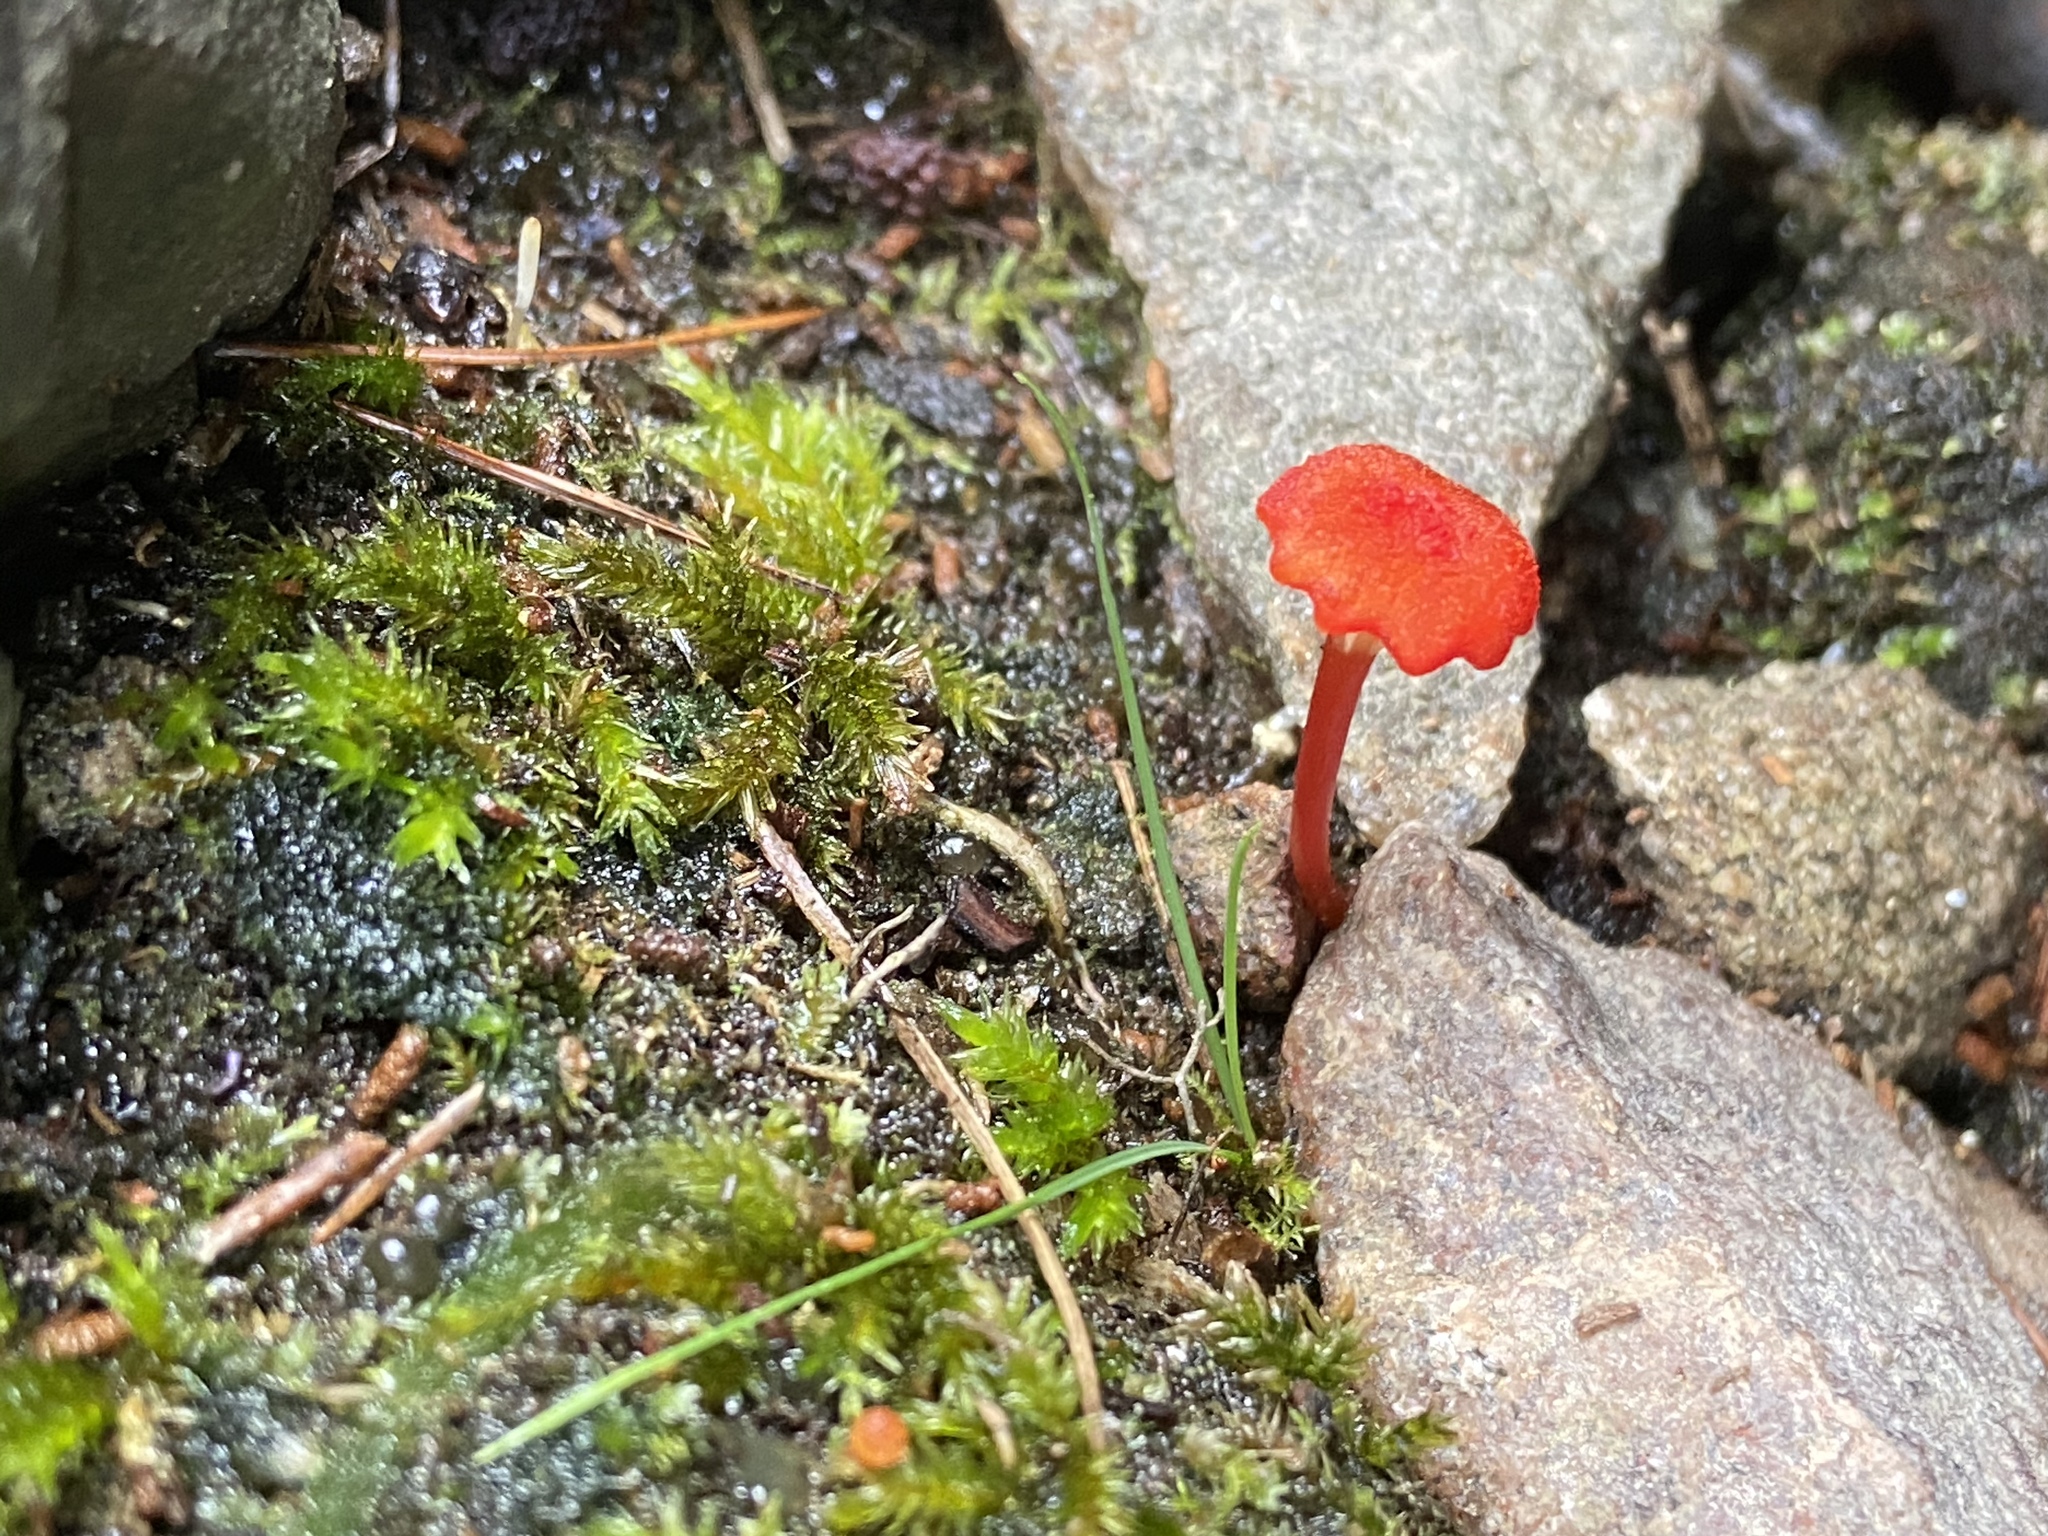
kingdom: Fungi
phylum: Basidiomycota
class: Agaricomycetes
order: Agaricales
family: Hygrophoraceae
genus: Hygrocybe
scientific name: Hygrocybe cantharellus
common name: Goblet waxcap
